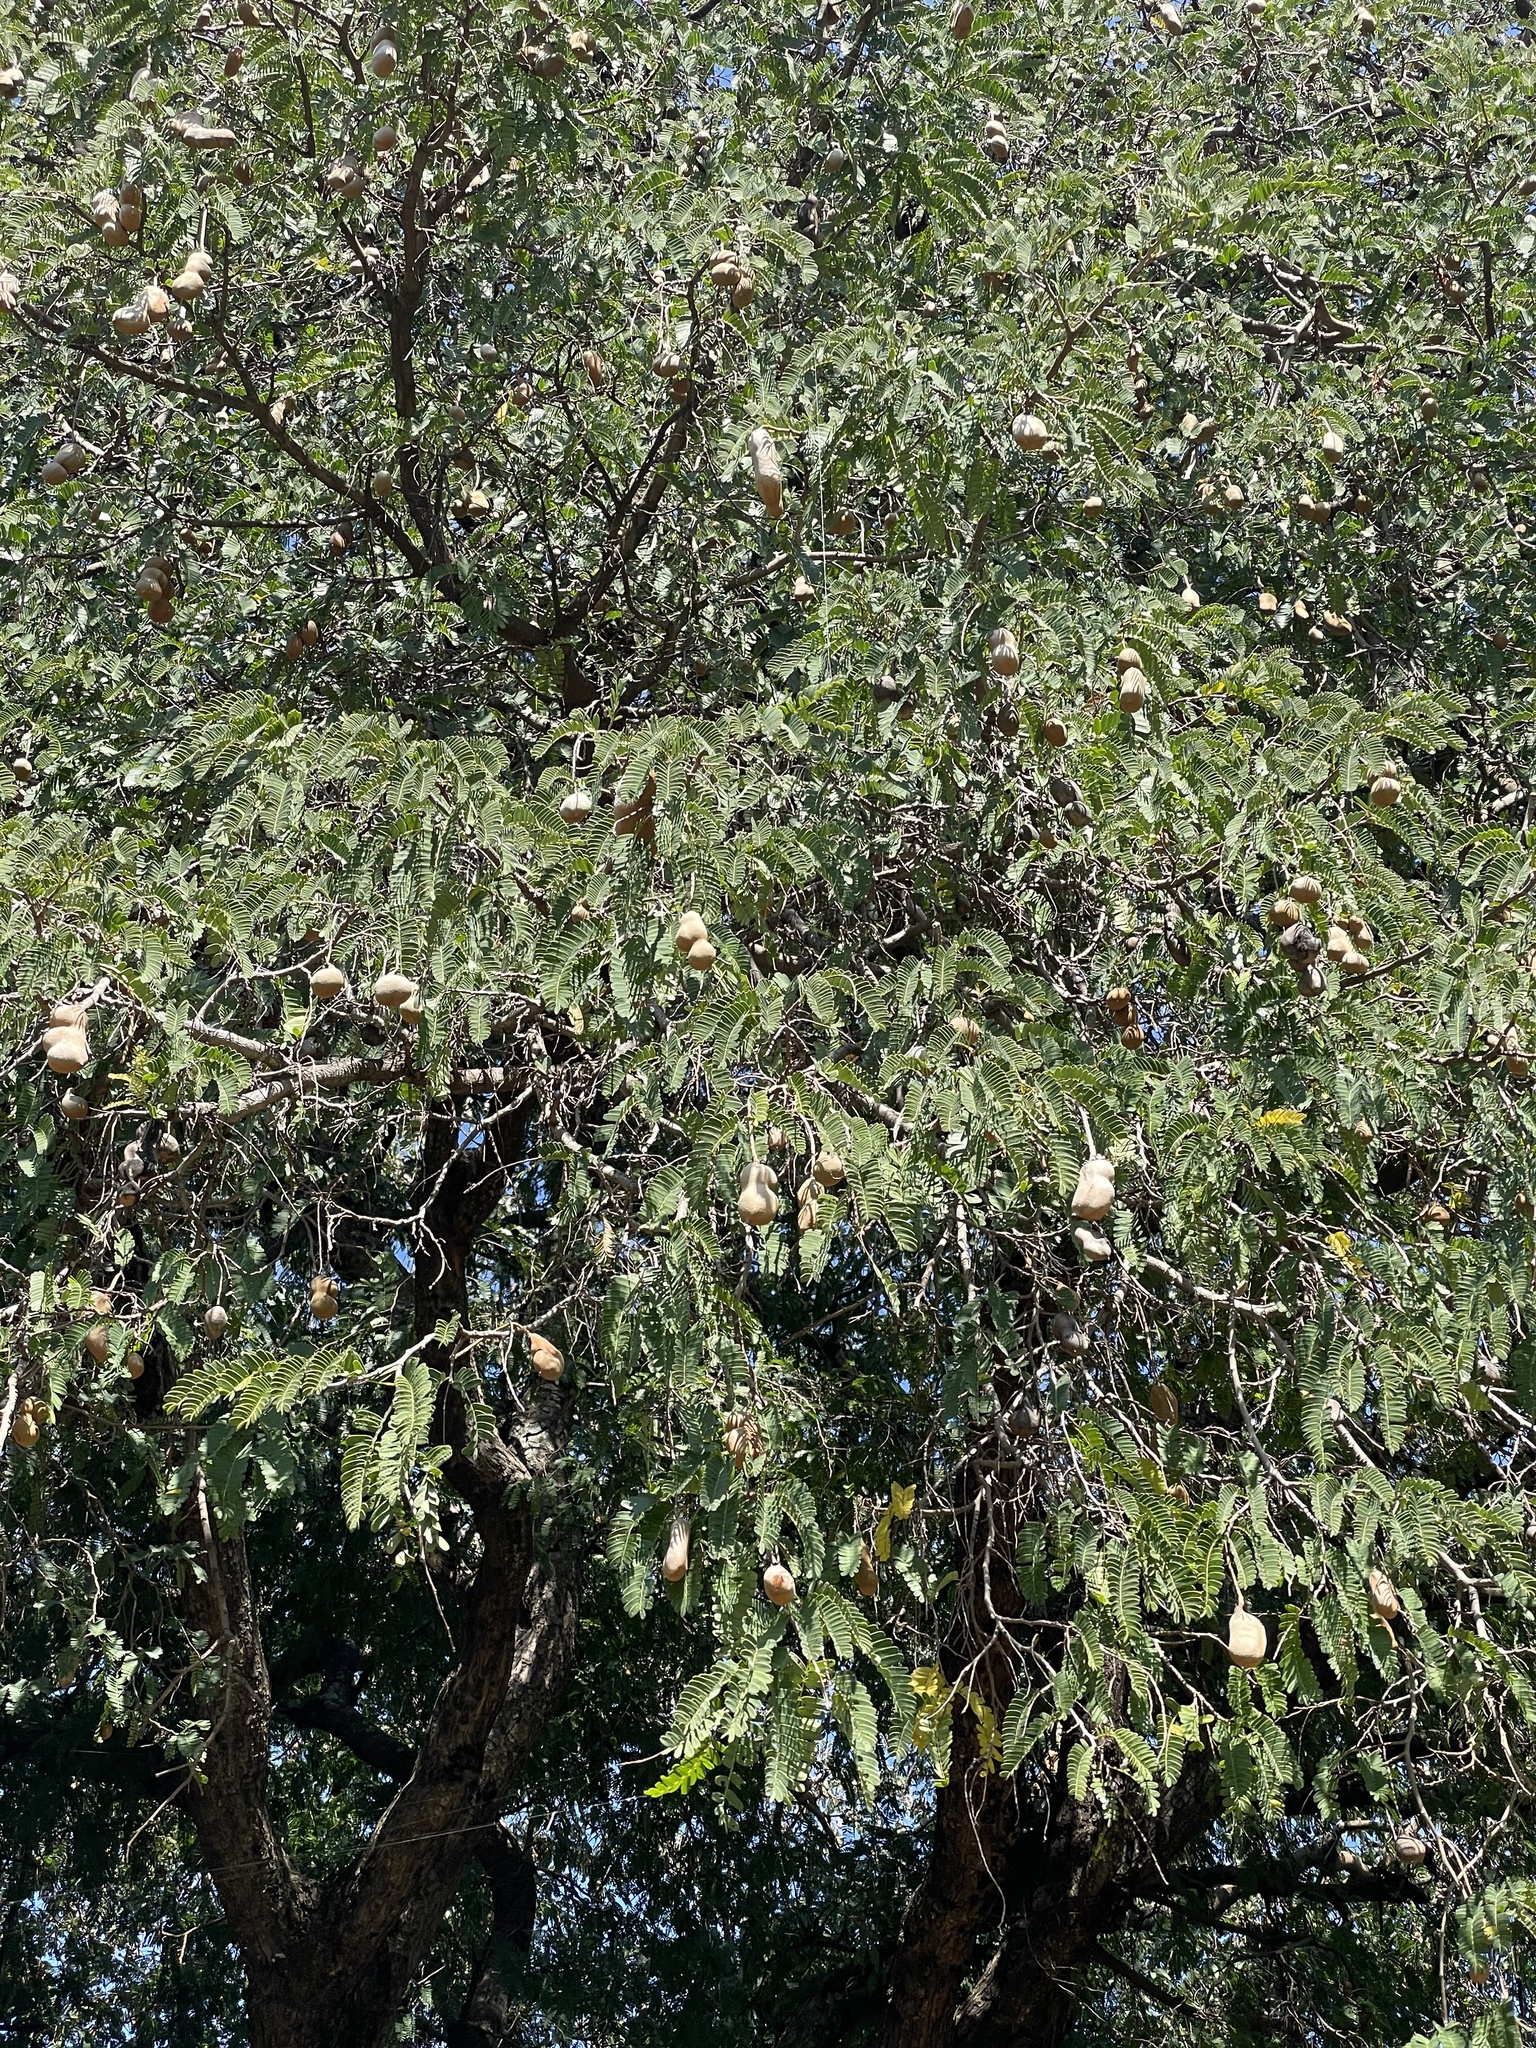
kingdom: Plantae
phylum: Tracheophyta
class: Magnoliopsida
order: Fabales
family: Fabaceae
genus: Tamarindus
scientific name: Tamarindus indica
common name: Tamarind
